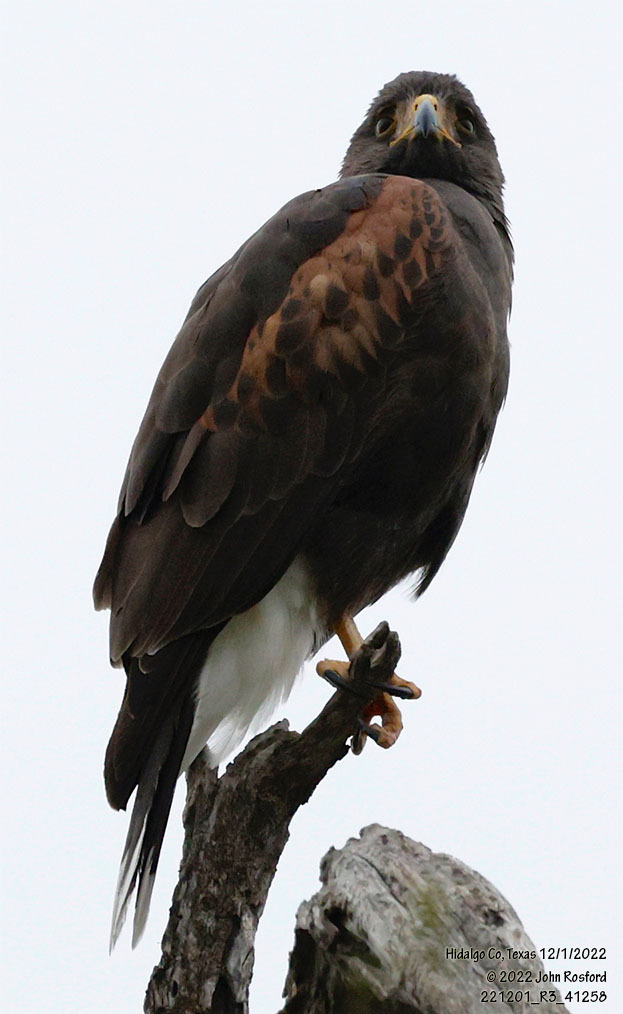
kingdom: Animalia
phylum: Chordata
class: Aves
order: Accipitriformes
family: Accipitridae
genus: Parabuteo
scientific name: Parabuteo unicinctus
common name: Harris's hawk
